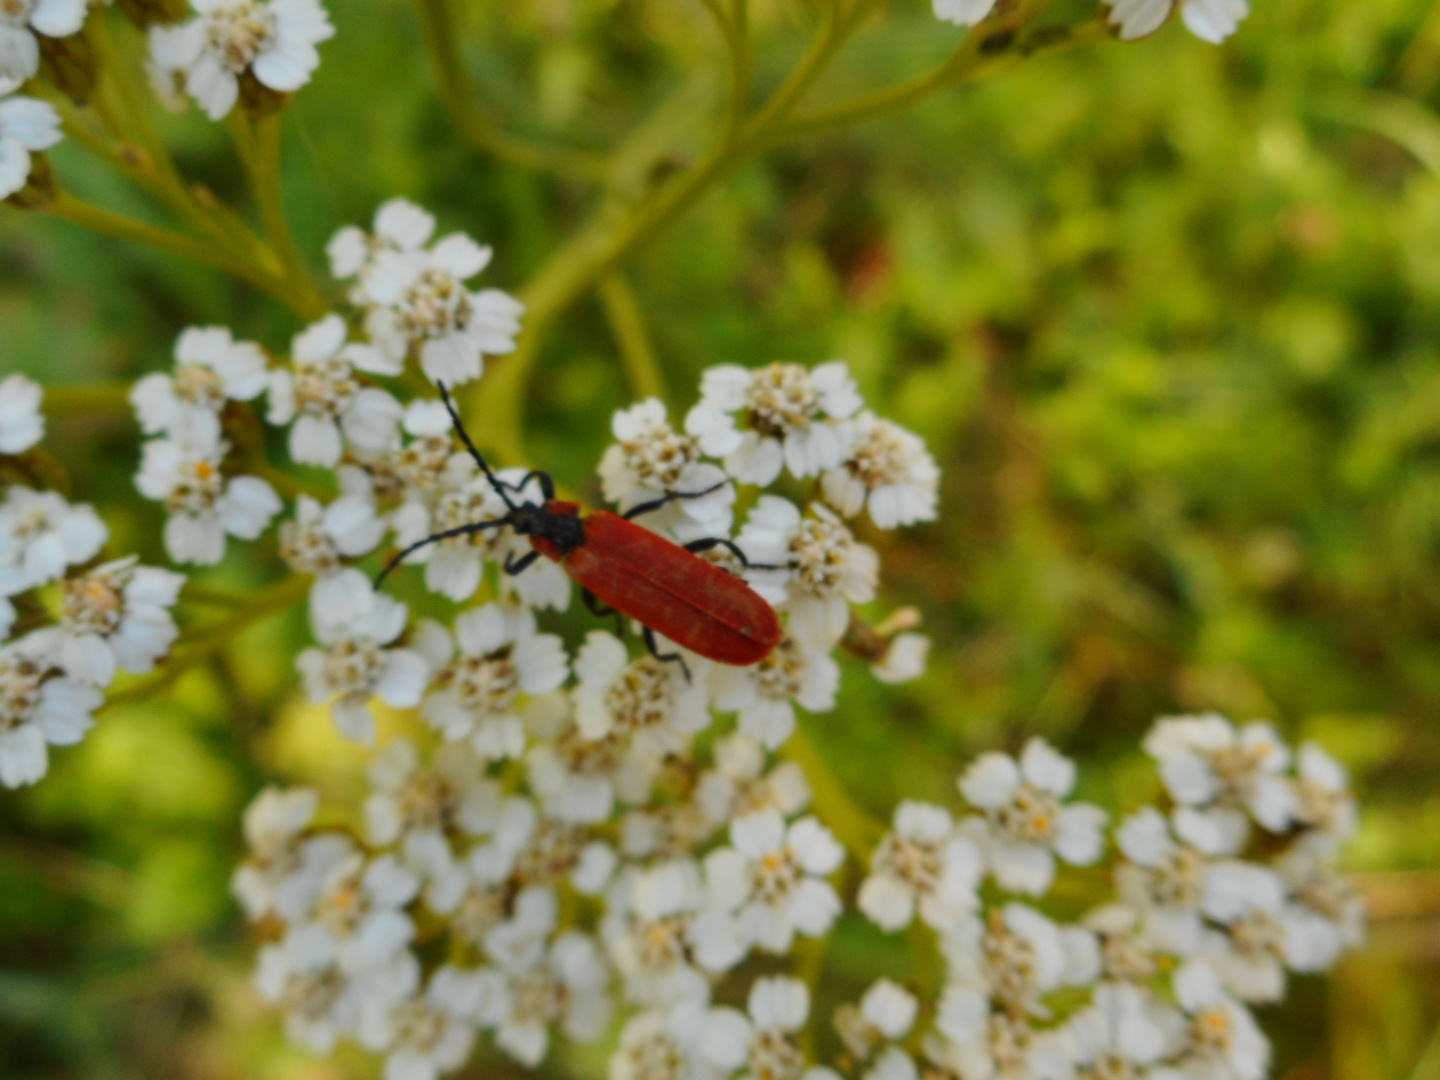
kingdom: Animalia
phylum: Arthropoda
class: Insecta
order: Coleoptera
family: Lycidae
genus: Lygistopterus
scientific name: Lygistopterus sanguineus
